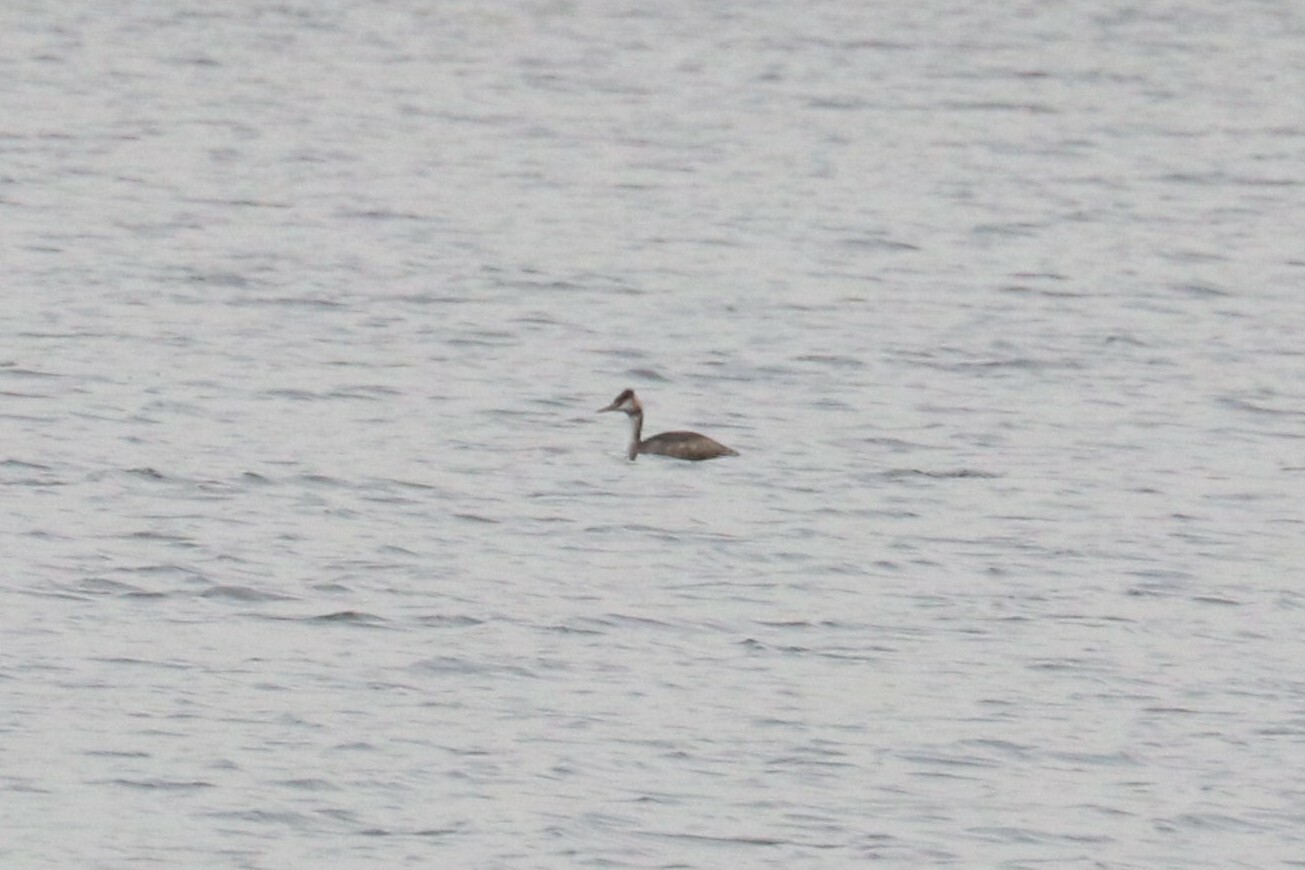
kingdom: Animalia
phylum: Chordata
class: Aves
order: Podicipediformes
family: Podicipedidae
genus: Podiceps
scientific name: Podiceps cristatus
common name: Great crested grebe
